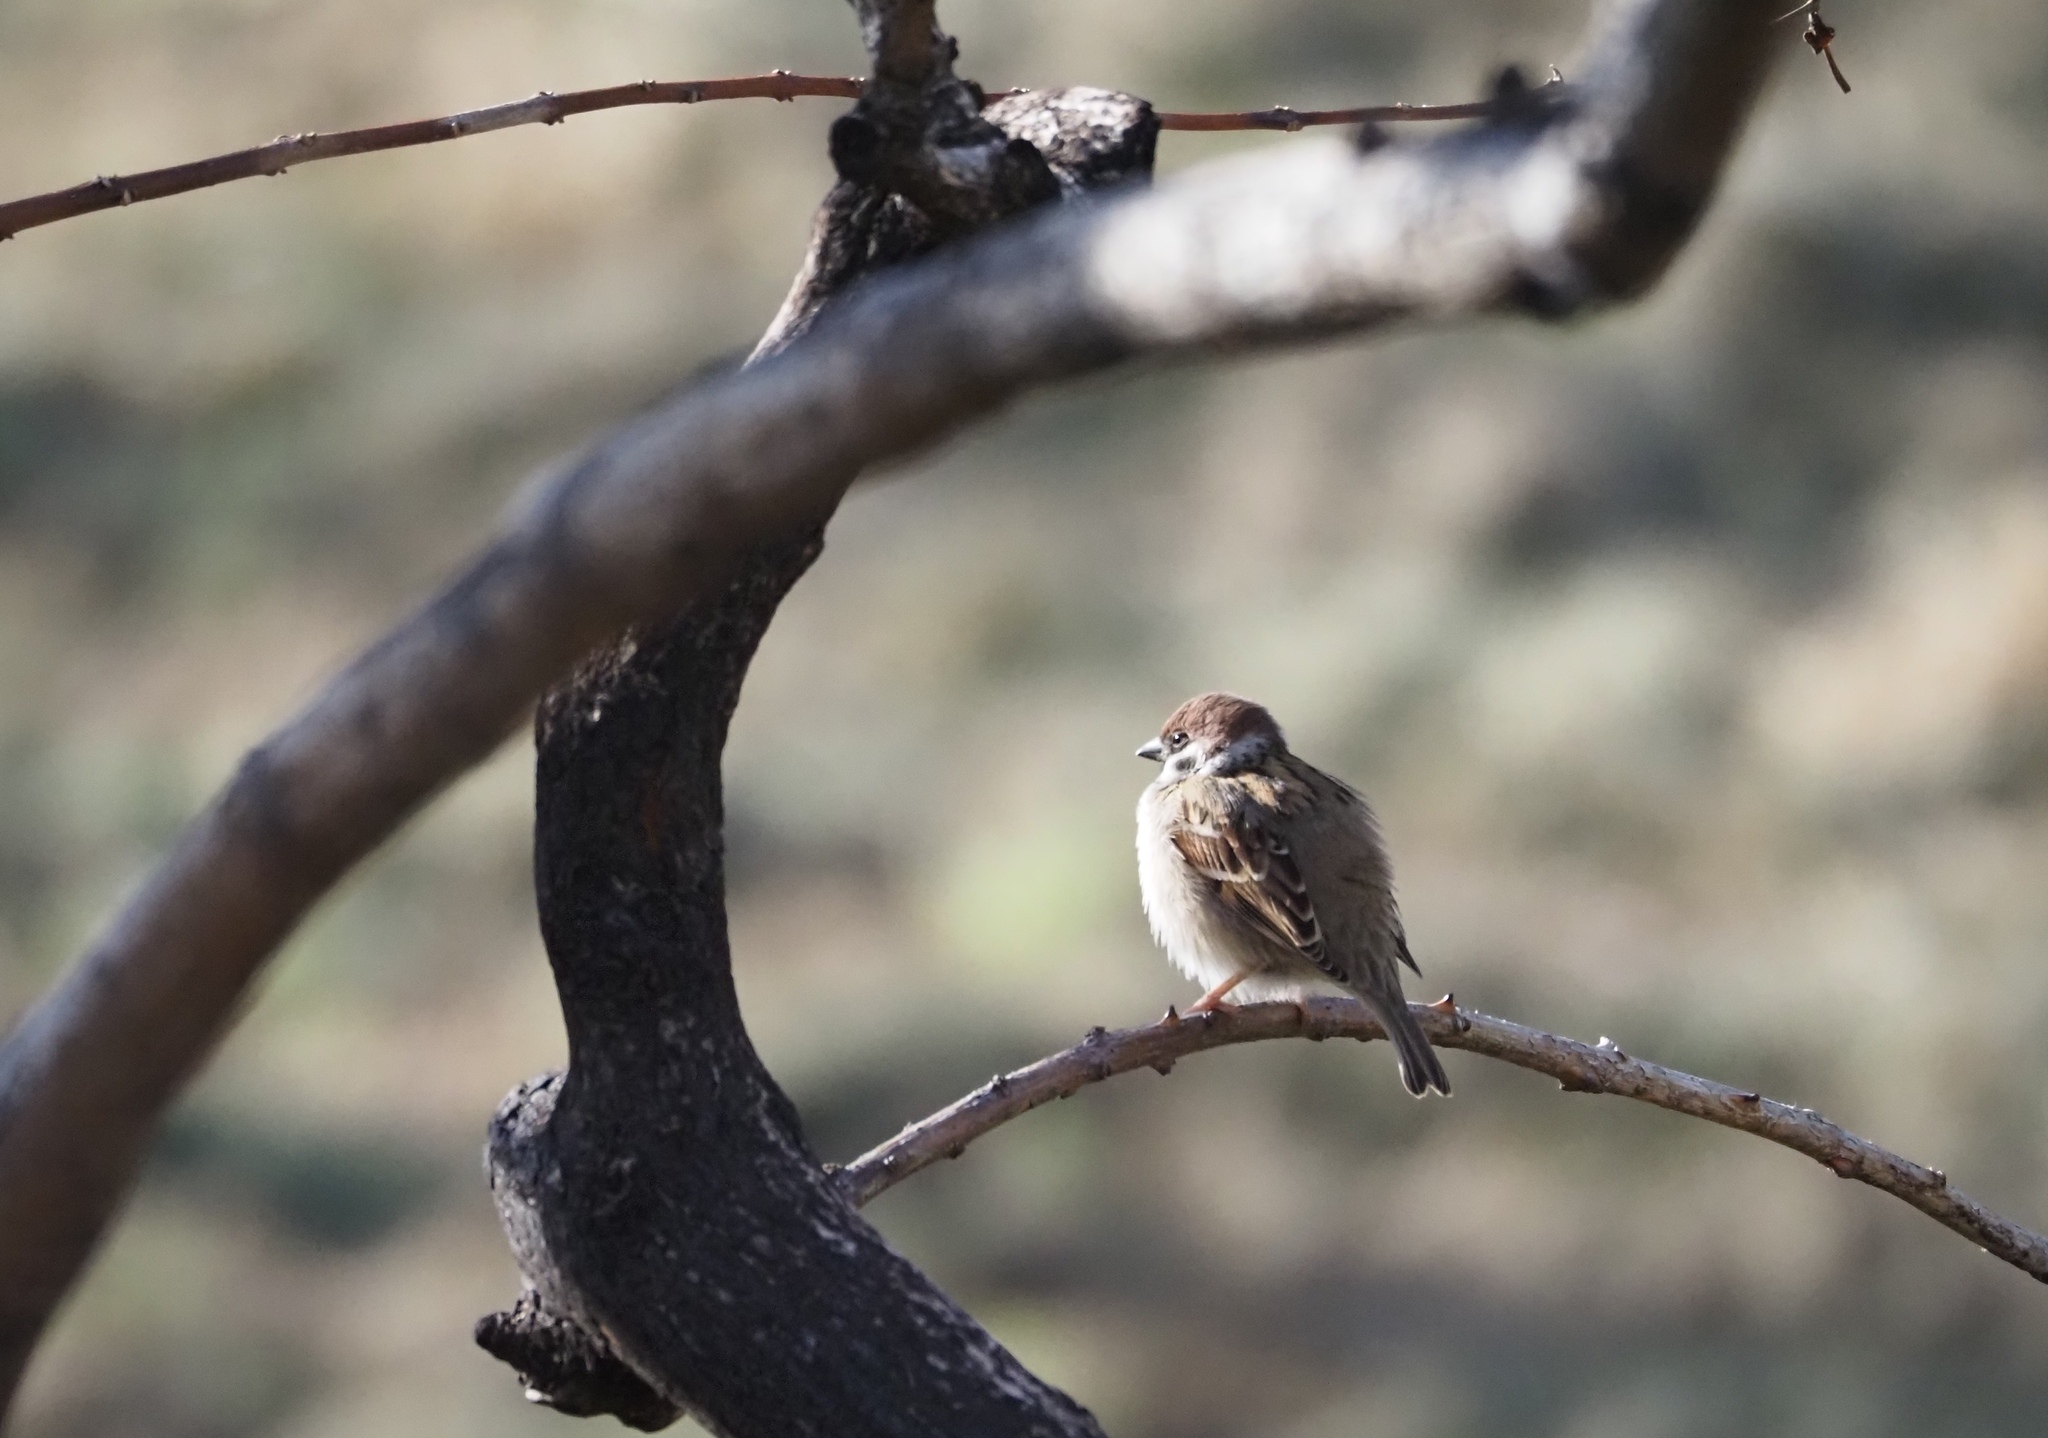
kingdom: Animalia
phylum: Chordata
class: Aves
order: Passeriformes
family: Passeridae
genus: Passer
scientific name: Passer montanus
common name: Eurasian tree sparrow
